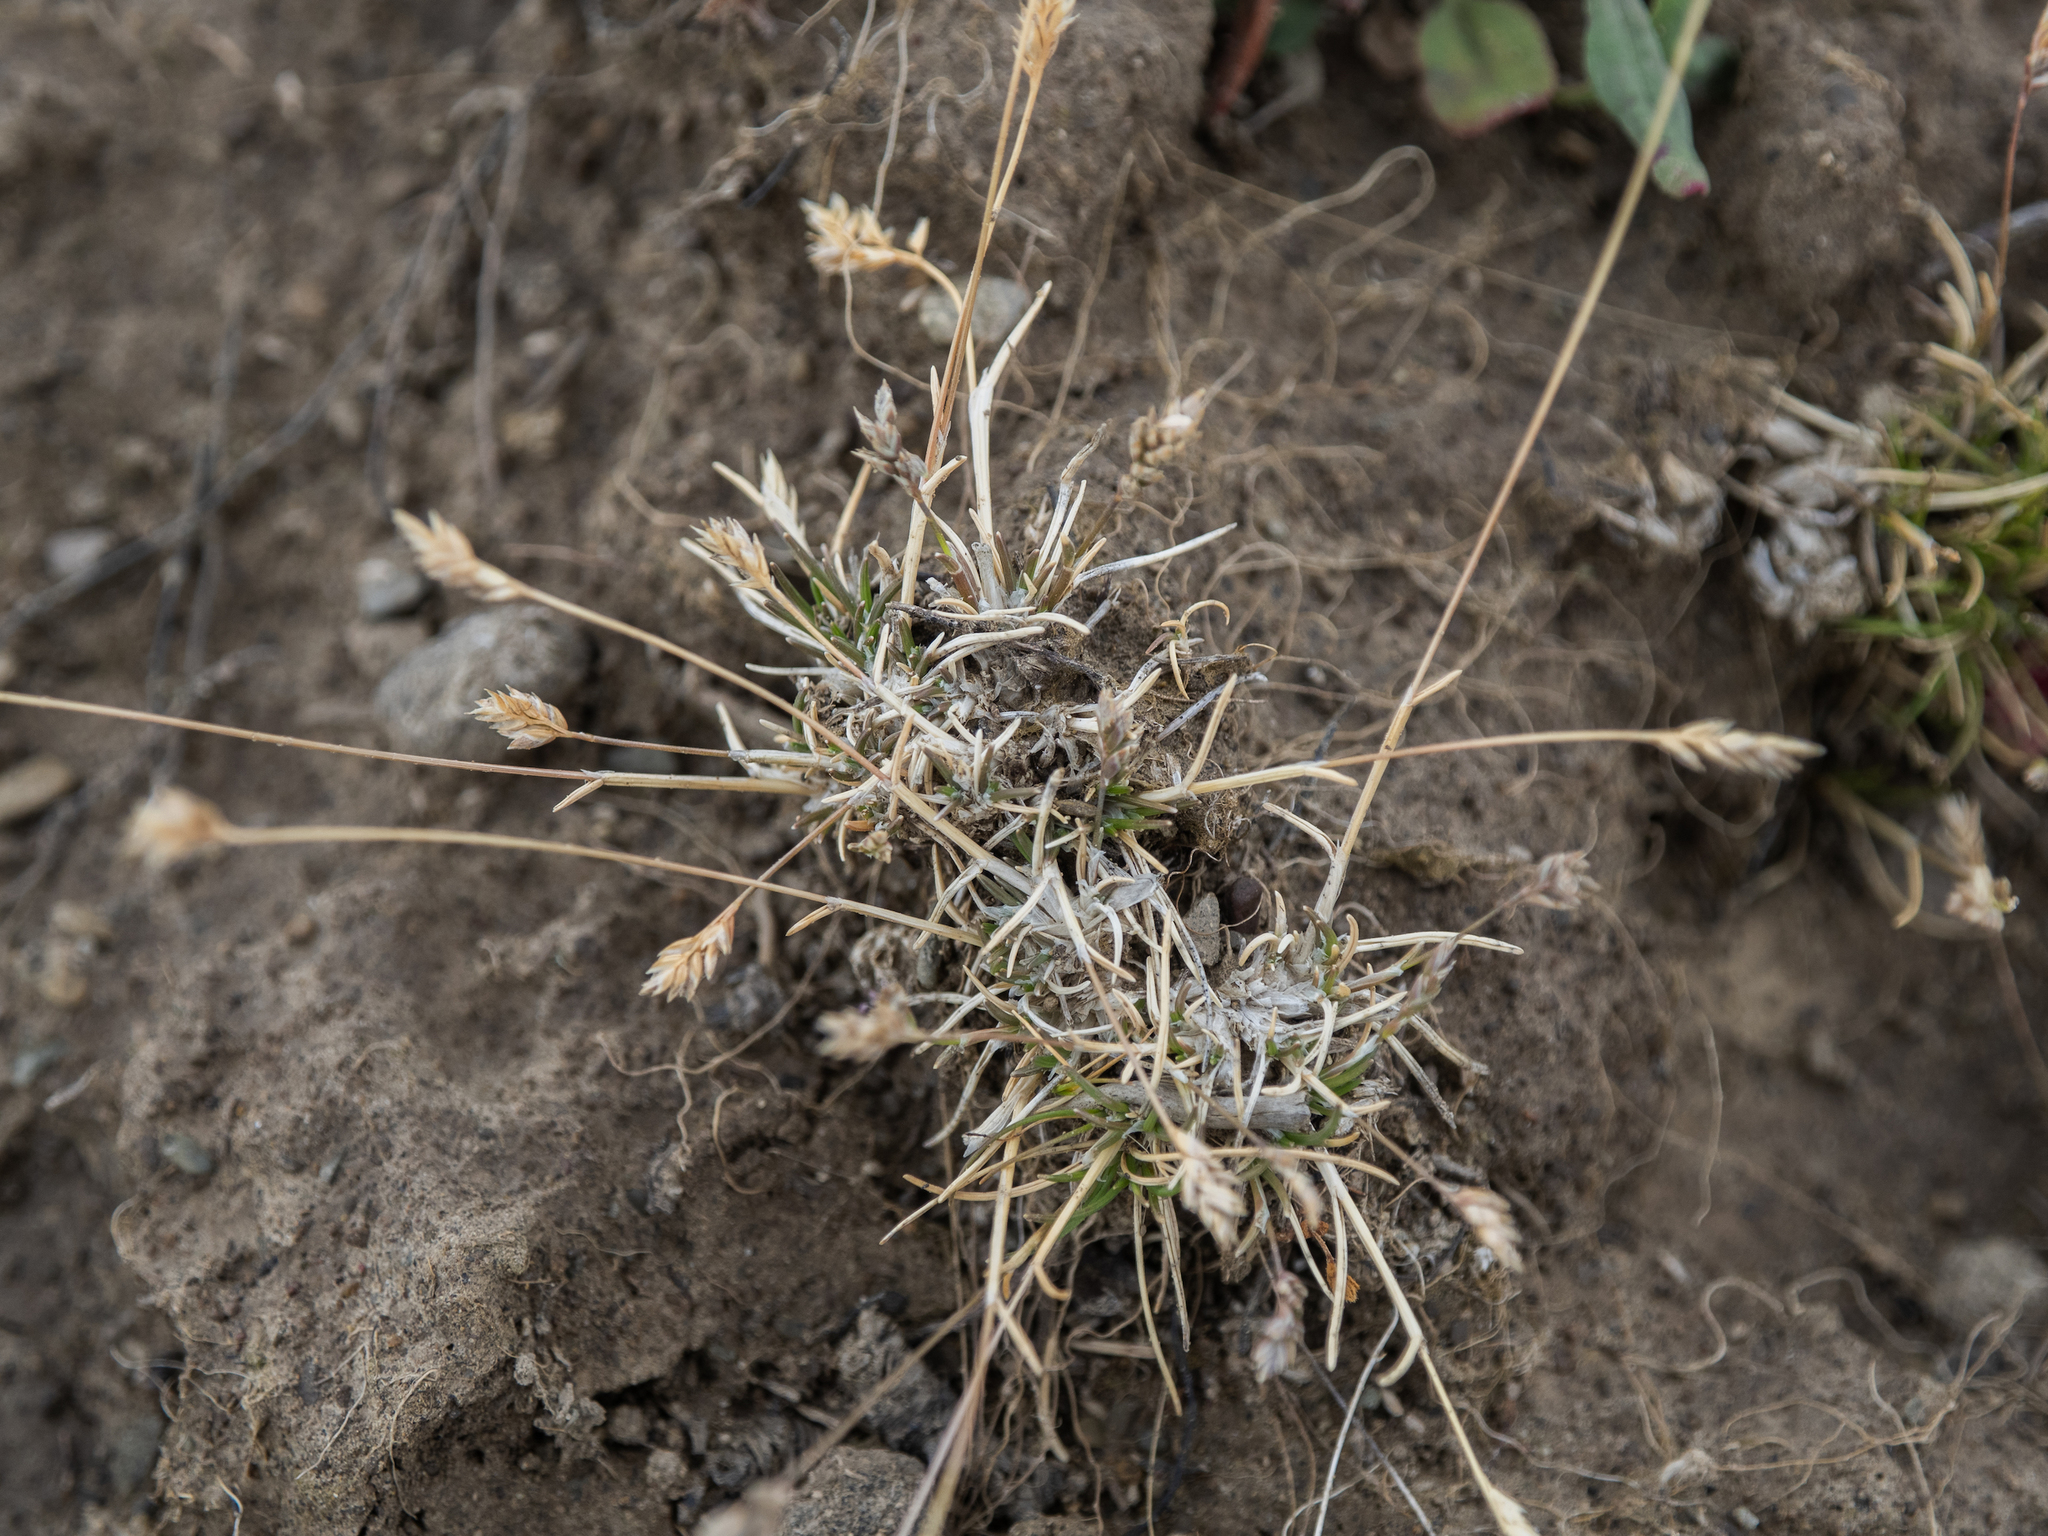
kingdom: Plantae
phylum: Tracheophyta
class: Liliopsida
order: Poales
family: Poaceae
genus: Poa
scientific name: Poa maniototo
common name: Desert poa
